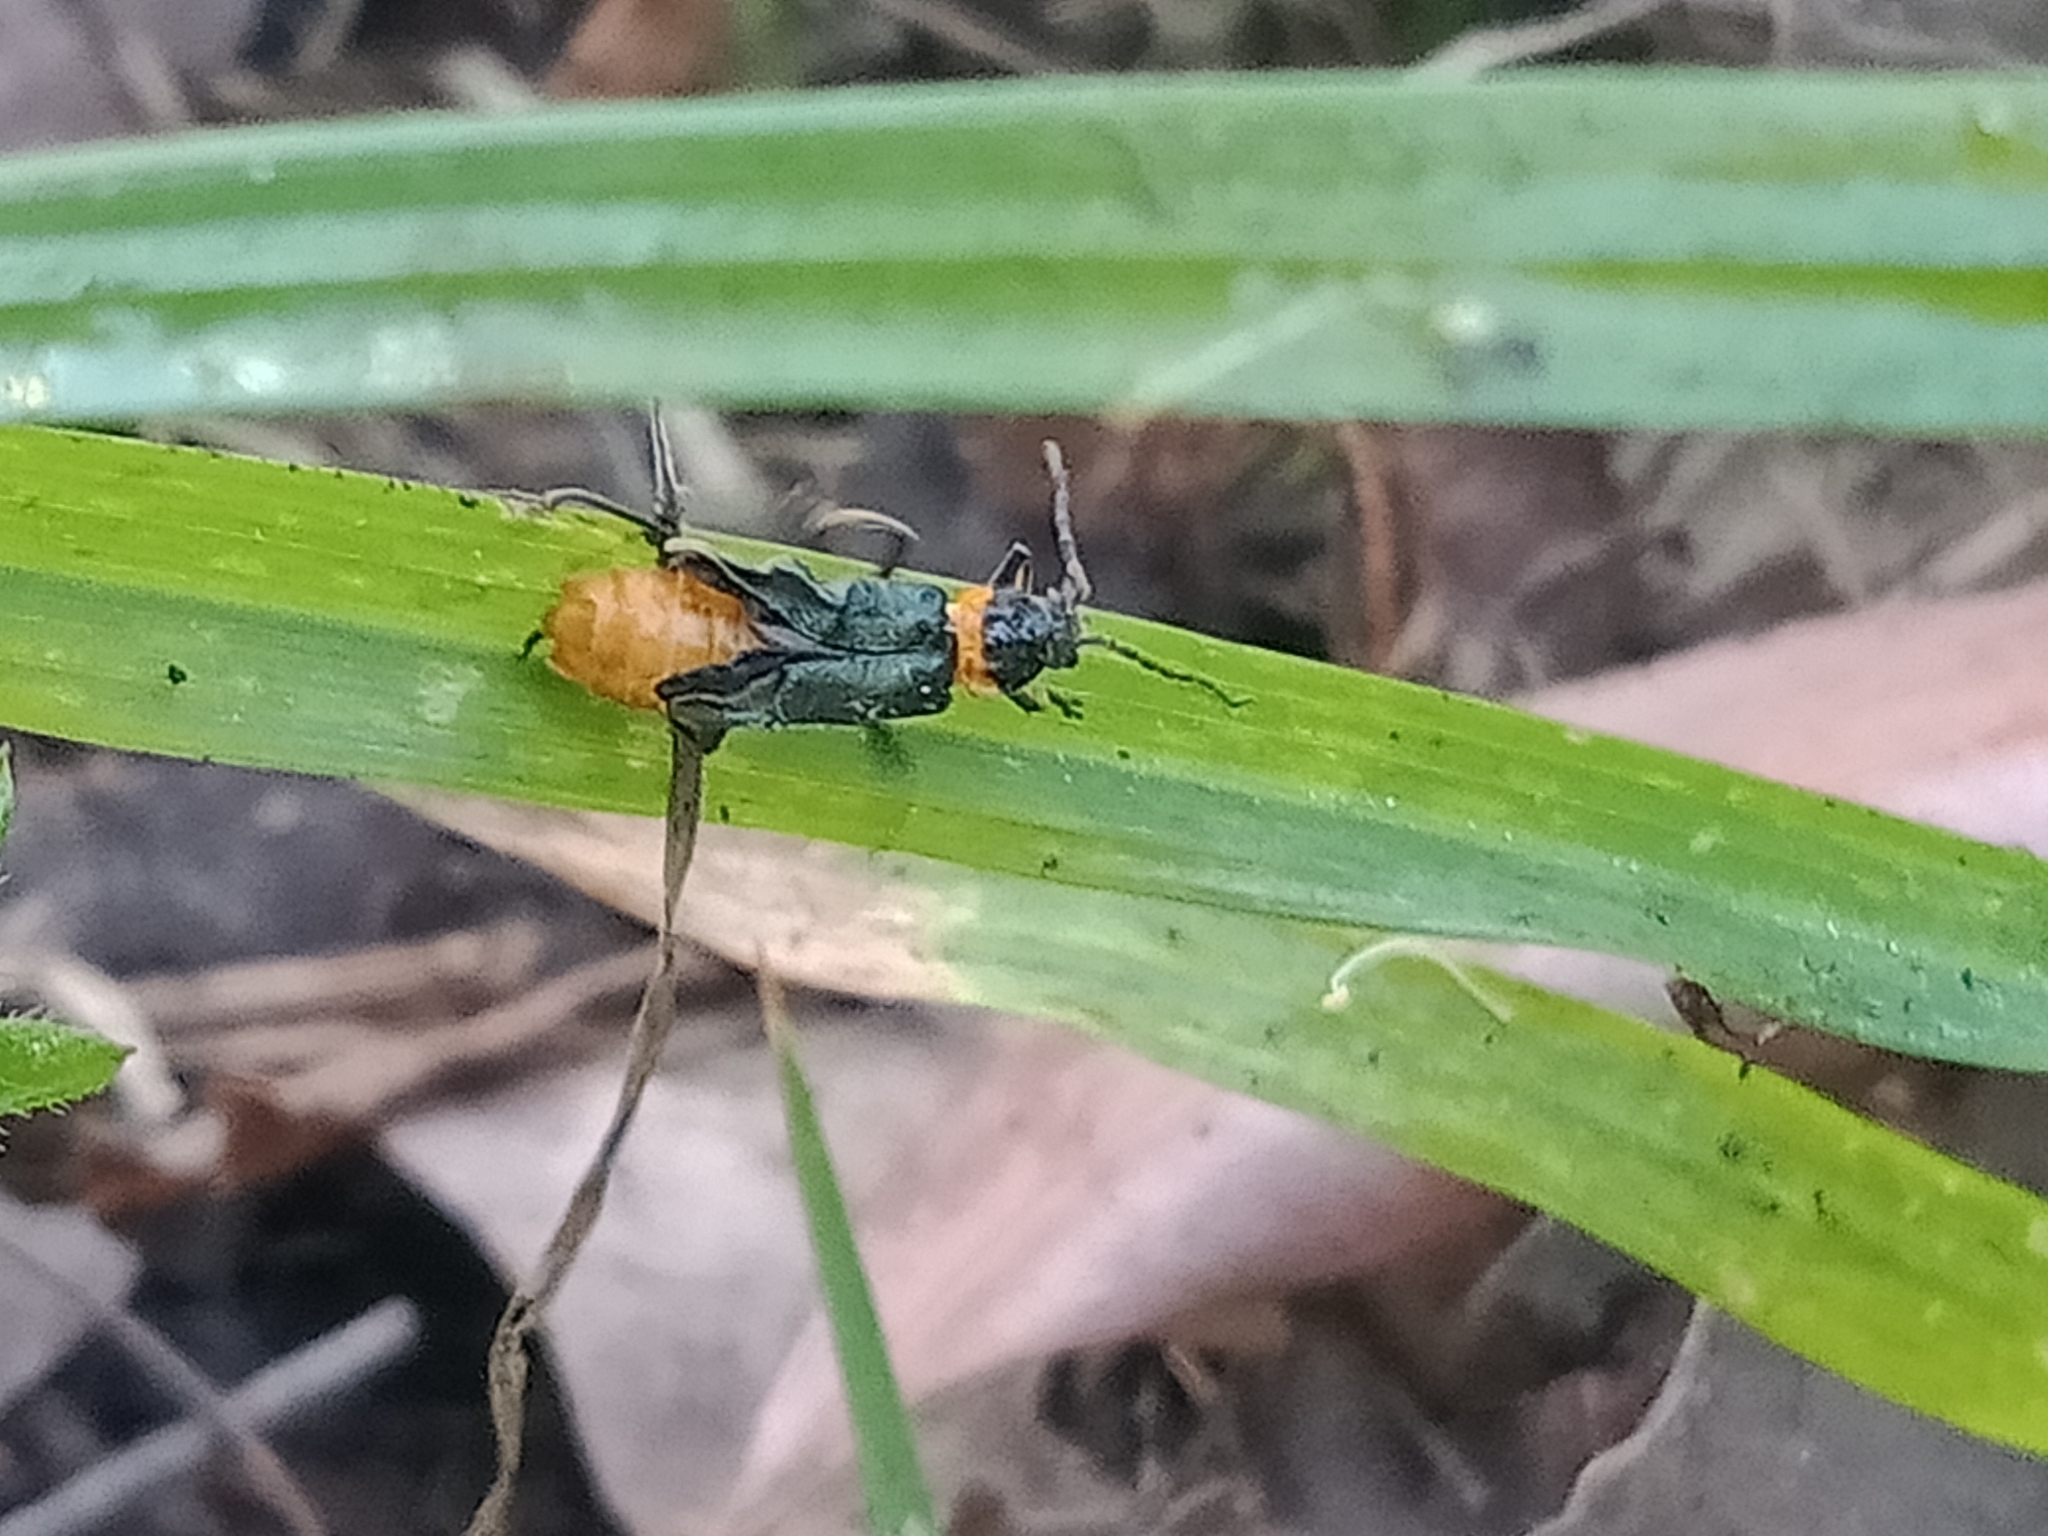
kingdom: Animalia
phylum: Arthropoda
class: Insecta
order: Coleoptera
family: Cantharidae
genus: Chauliognathus
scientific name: Chauliognathus
